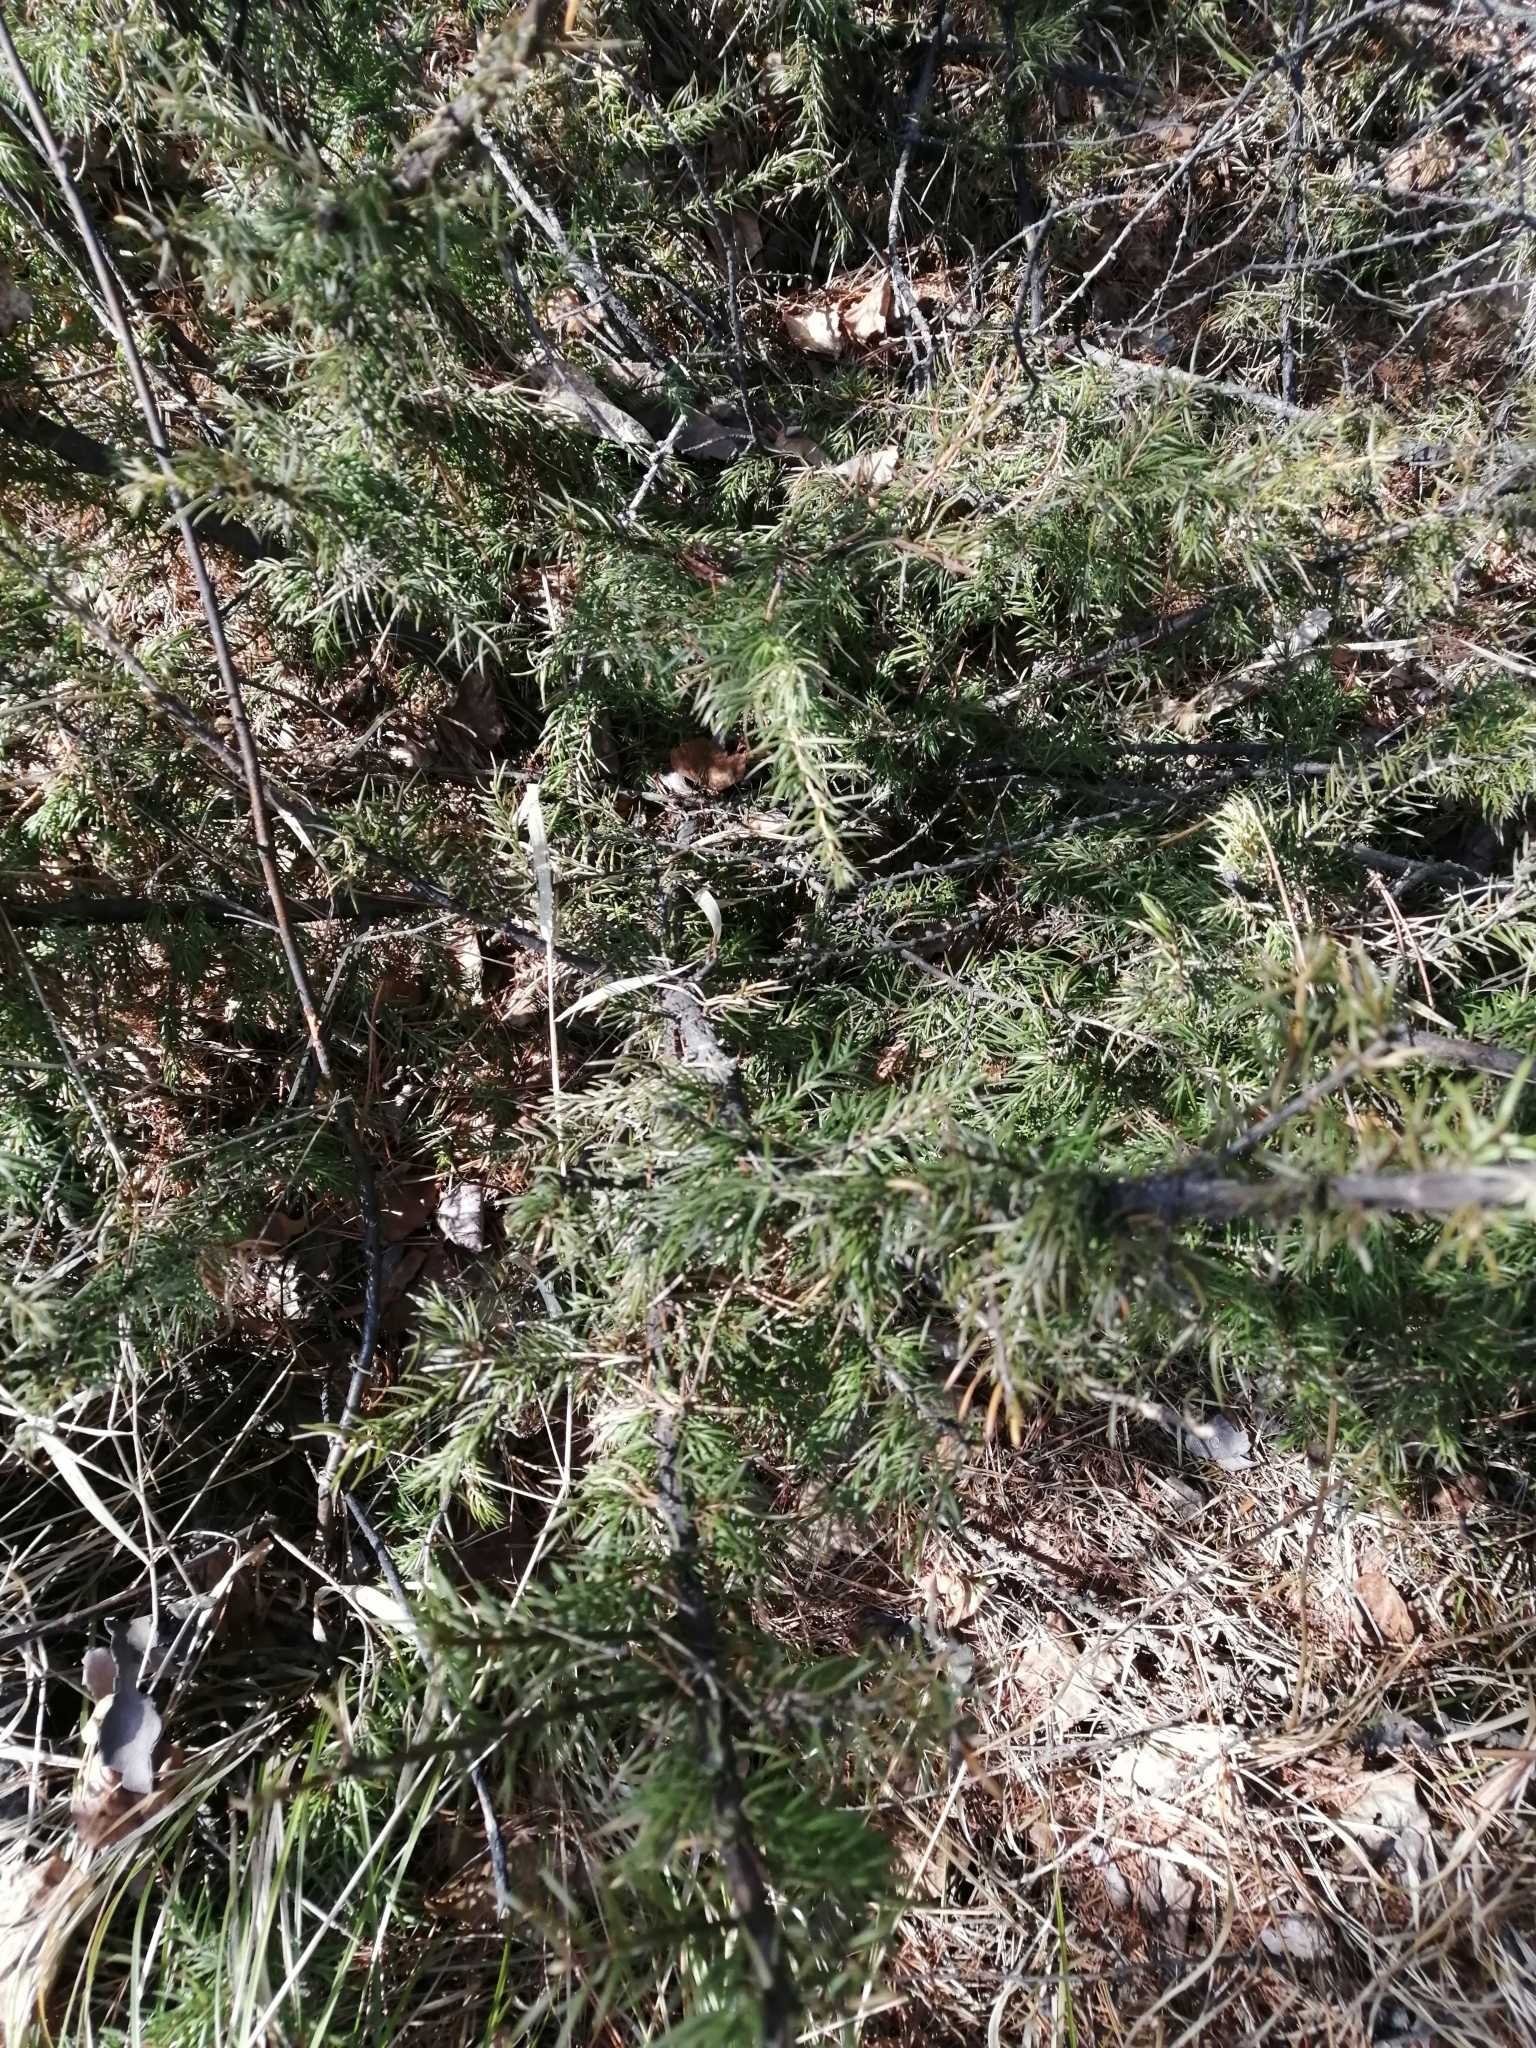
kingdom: Plantae
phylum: Tracheophyta
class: Pinopsida
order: Pinales
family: Cupressaceae
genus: Juniperus
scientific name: Juniperus communis
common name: Common juniper
